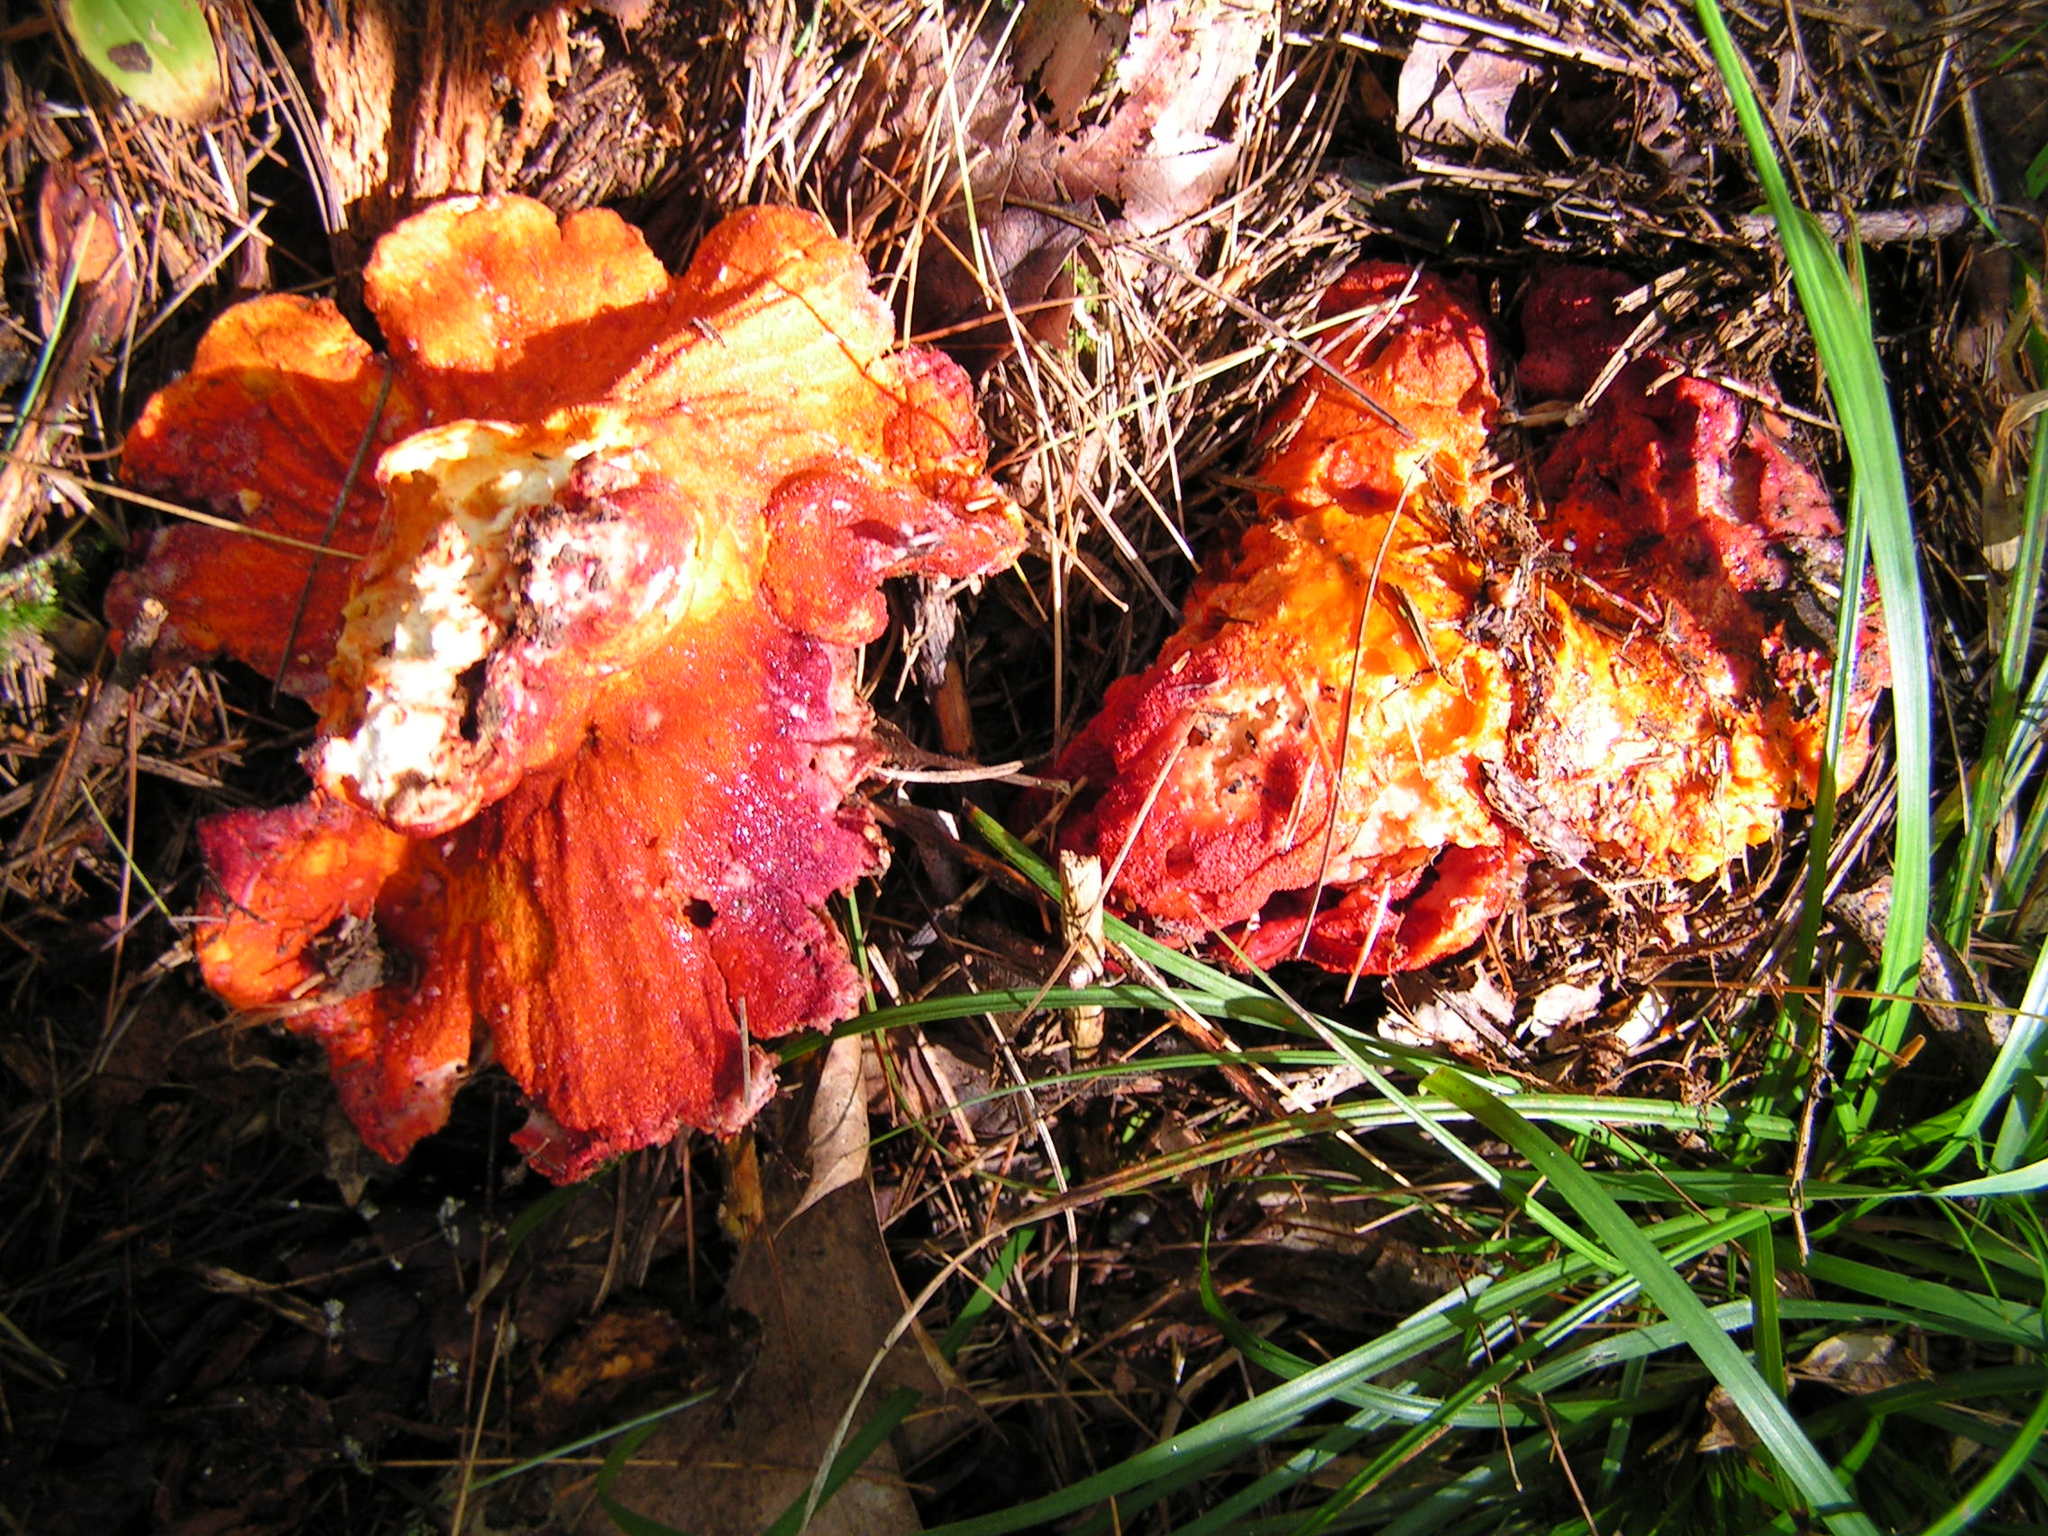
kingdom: Fungi
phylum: Ascomycota
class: Sordariomycetes
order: Hypocreales
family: Hypocreaceae
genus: Hypomyces
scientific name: Hypomyces lactifluorum
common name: Lobster mushroom
